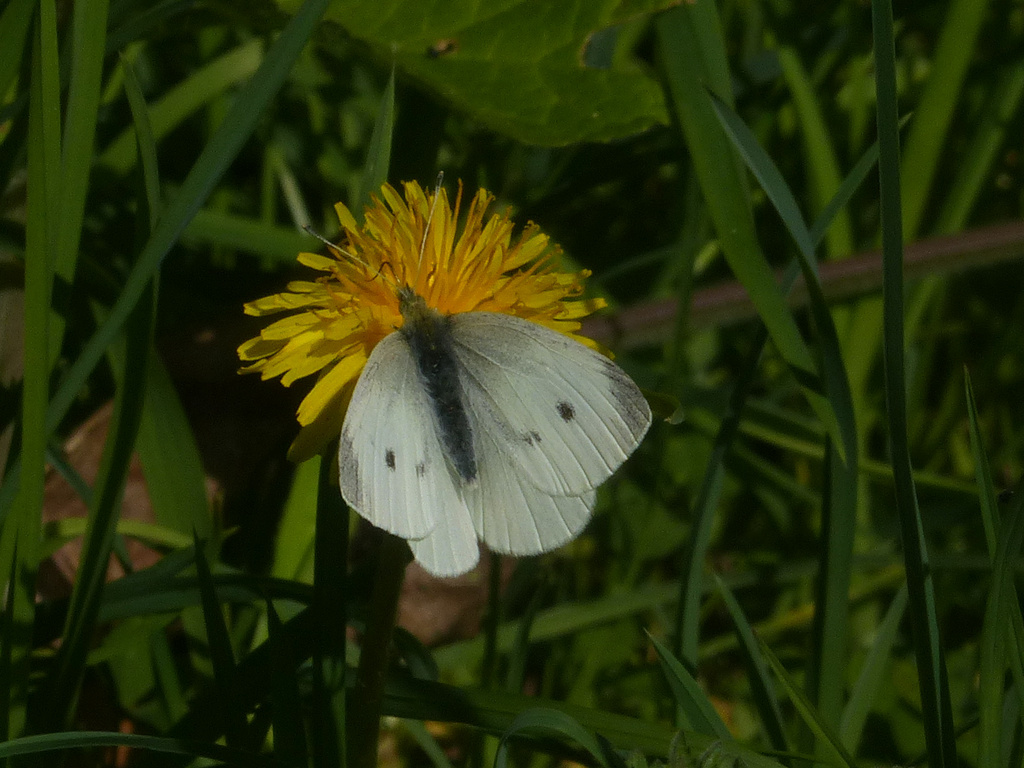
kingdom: Animalia
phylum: Arthropoda
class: Insecta
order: Lepidoptera
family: Pieridae
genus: Pieris
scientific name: Pieris rapae
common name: Small white
